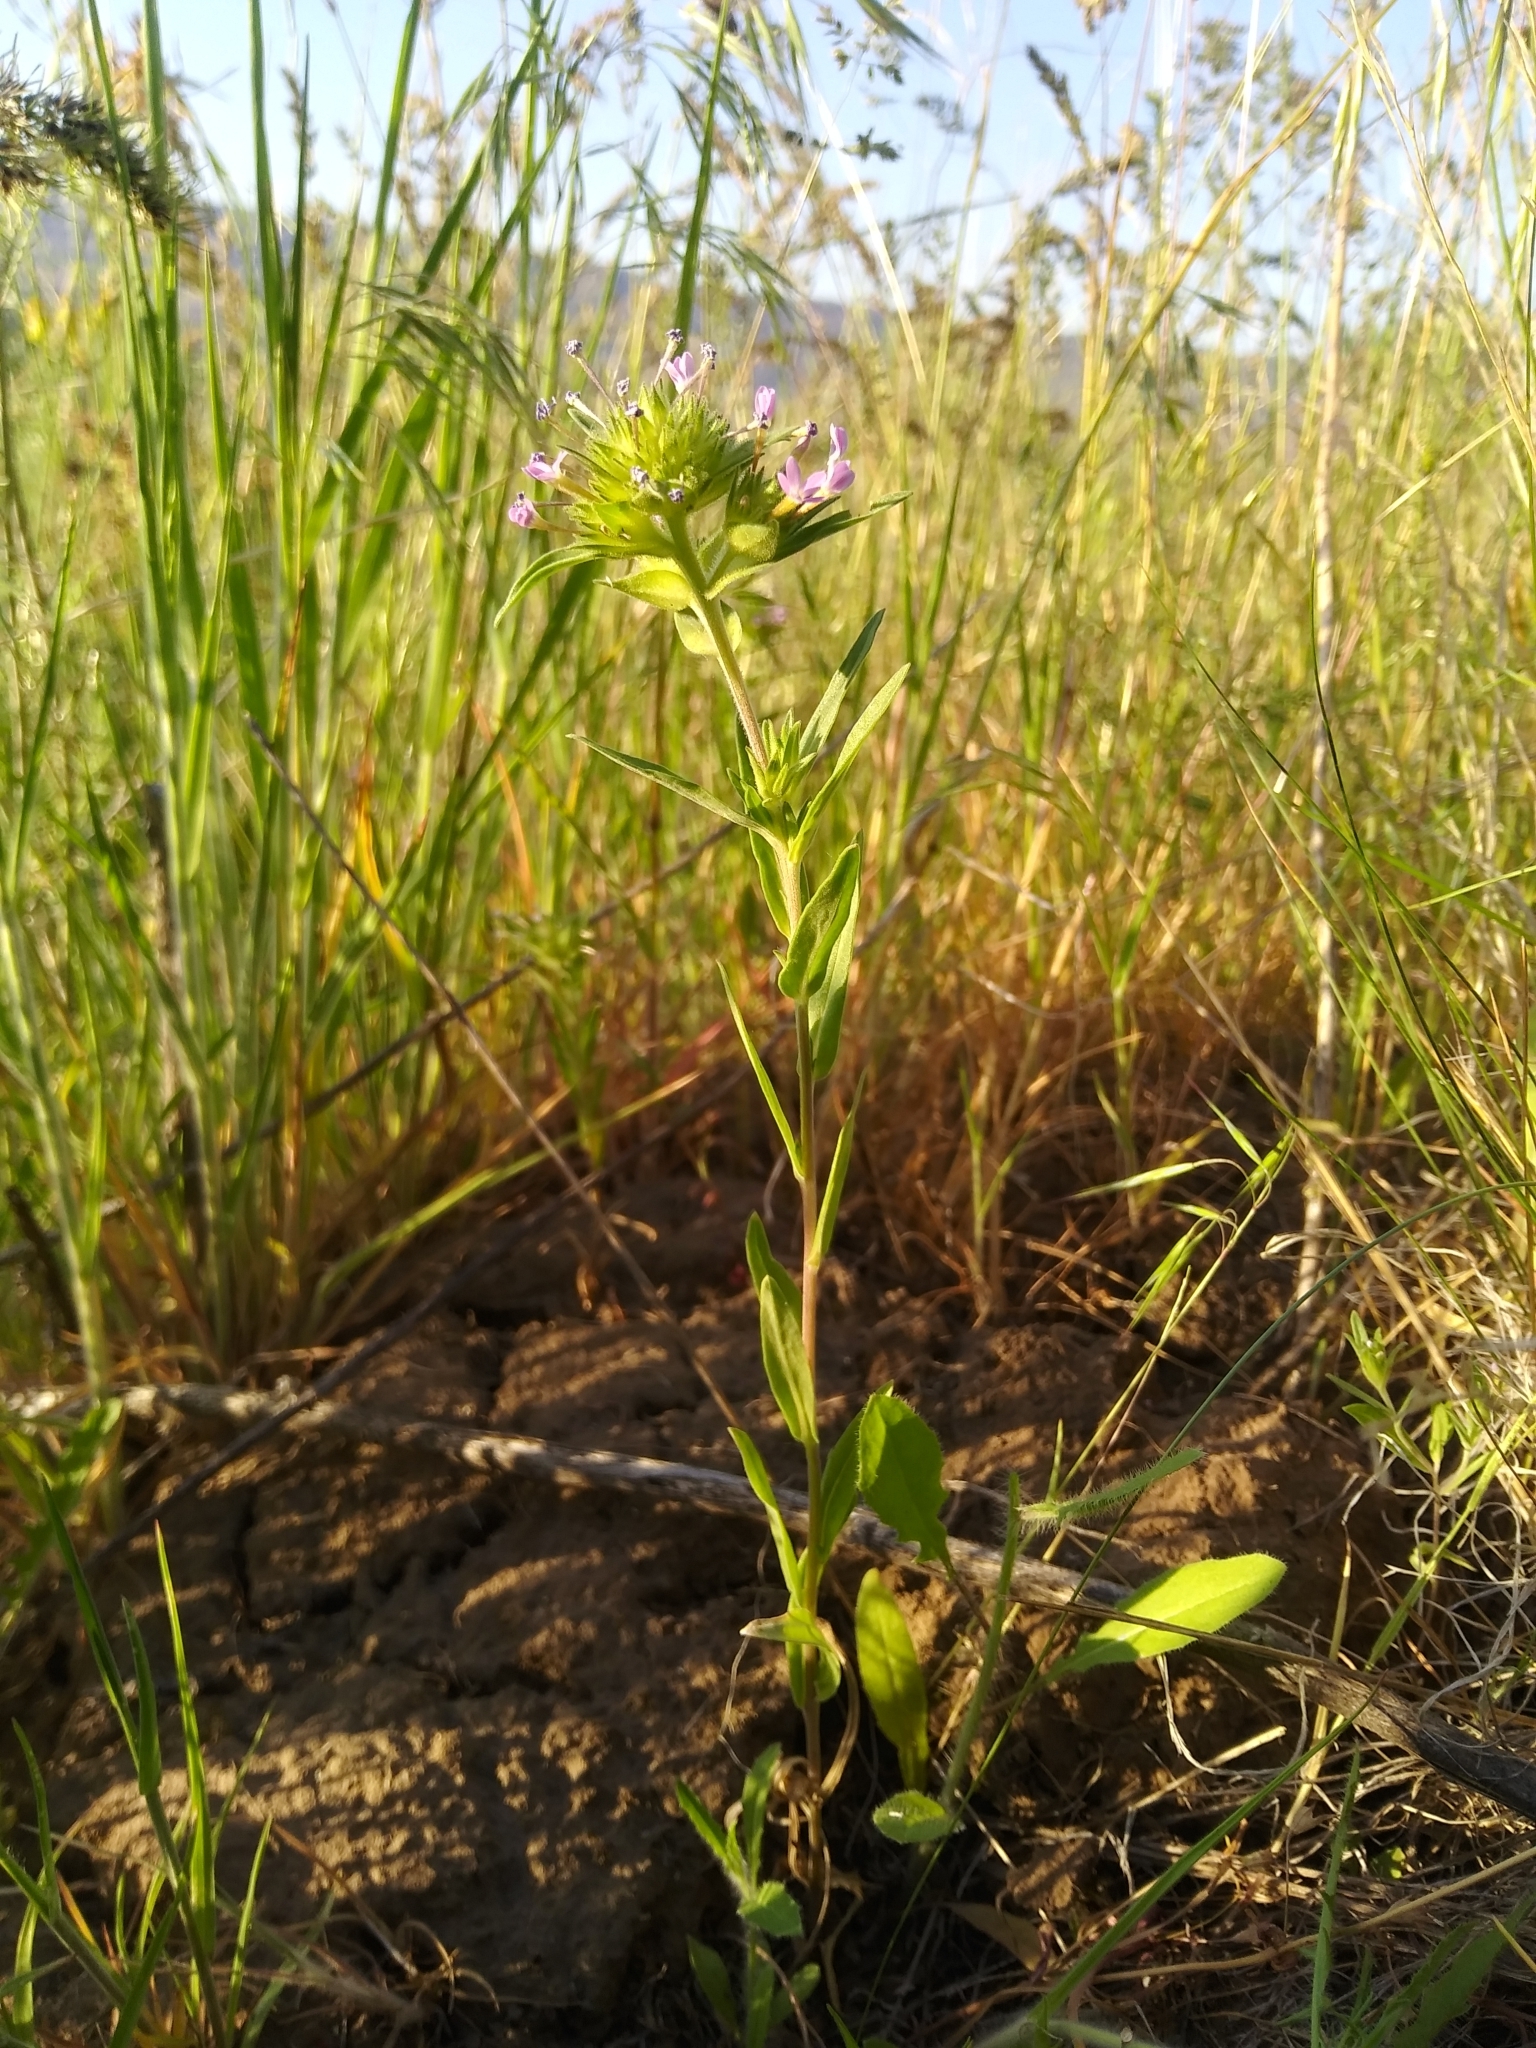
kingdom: Plantae
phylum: Tracheophyta
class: Magnoliopsida
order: Ericales
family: Polemoniaceae
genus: Collomia
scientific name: Collomia linearis
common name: Tiny trumpet
